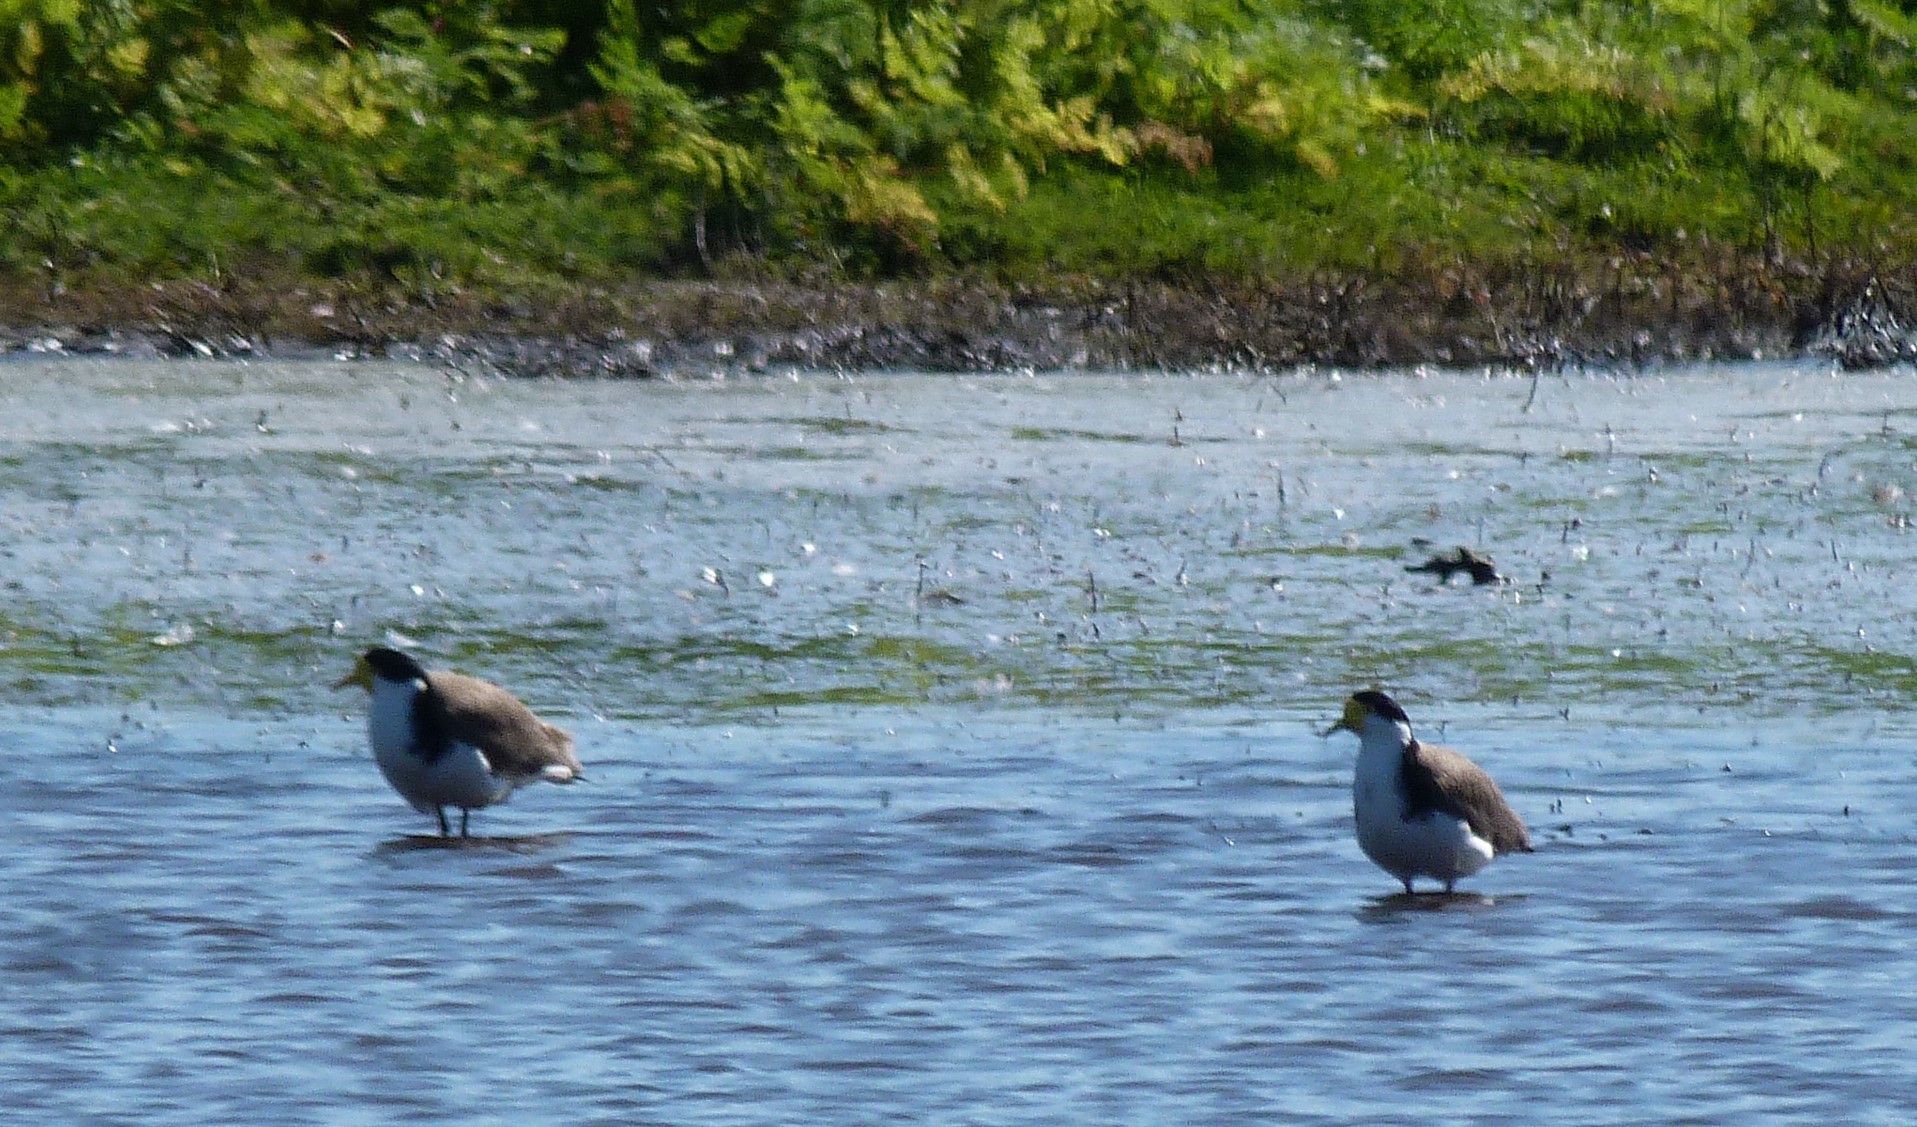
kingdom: Animalia
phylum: Chordata
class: Aves
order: Charadriiformes
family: Charadriidae
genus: Vanellus
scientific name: Vanellus miles
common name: Masked lapwing
